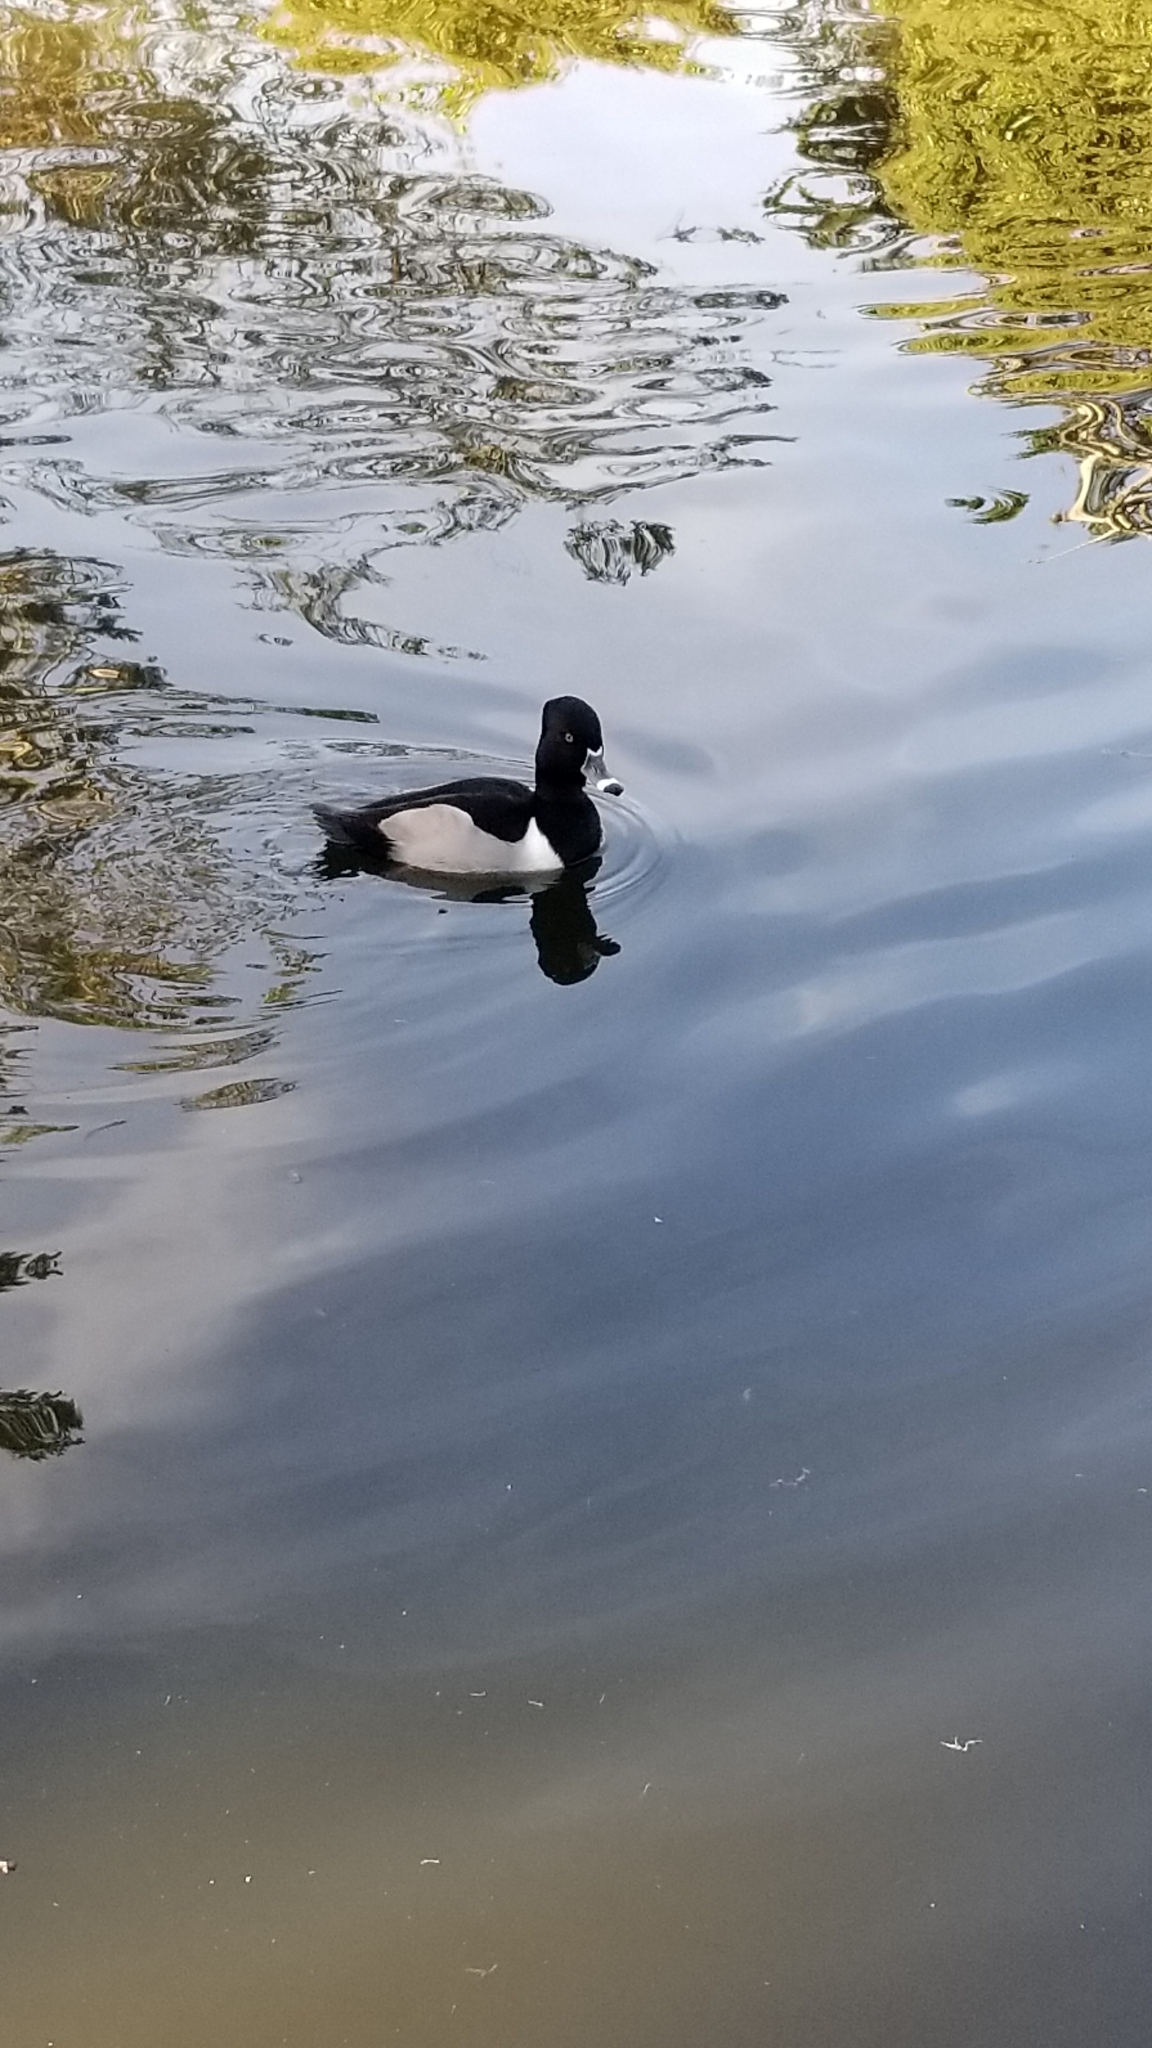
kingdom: Animalia
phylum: Chordata
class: Aves
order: Anseriformes
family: Anatidae
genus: Aythya
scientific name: Aythya collaris
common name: Ring-necked duck
